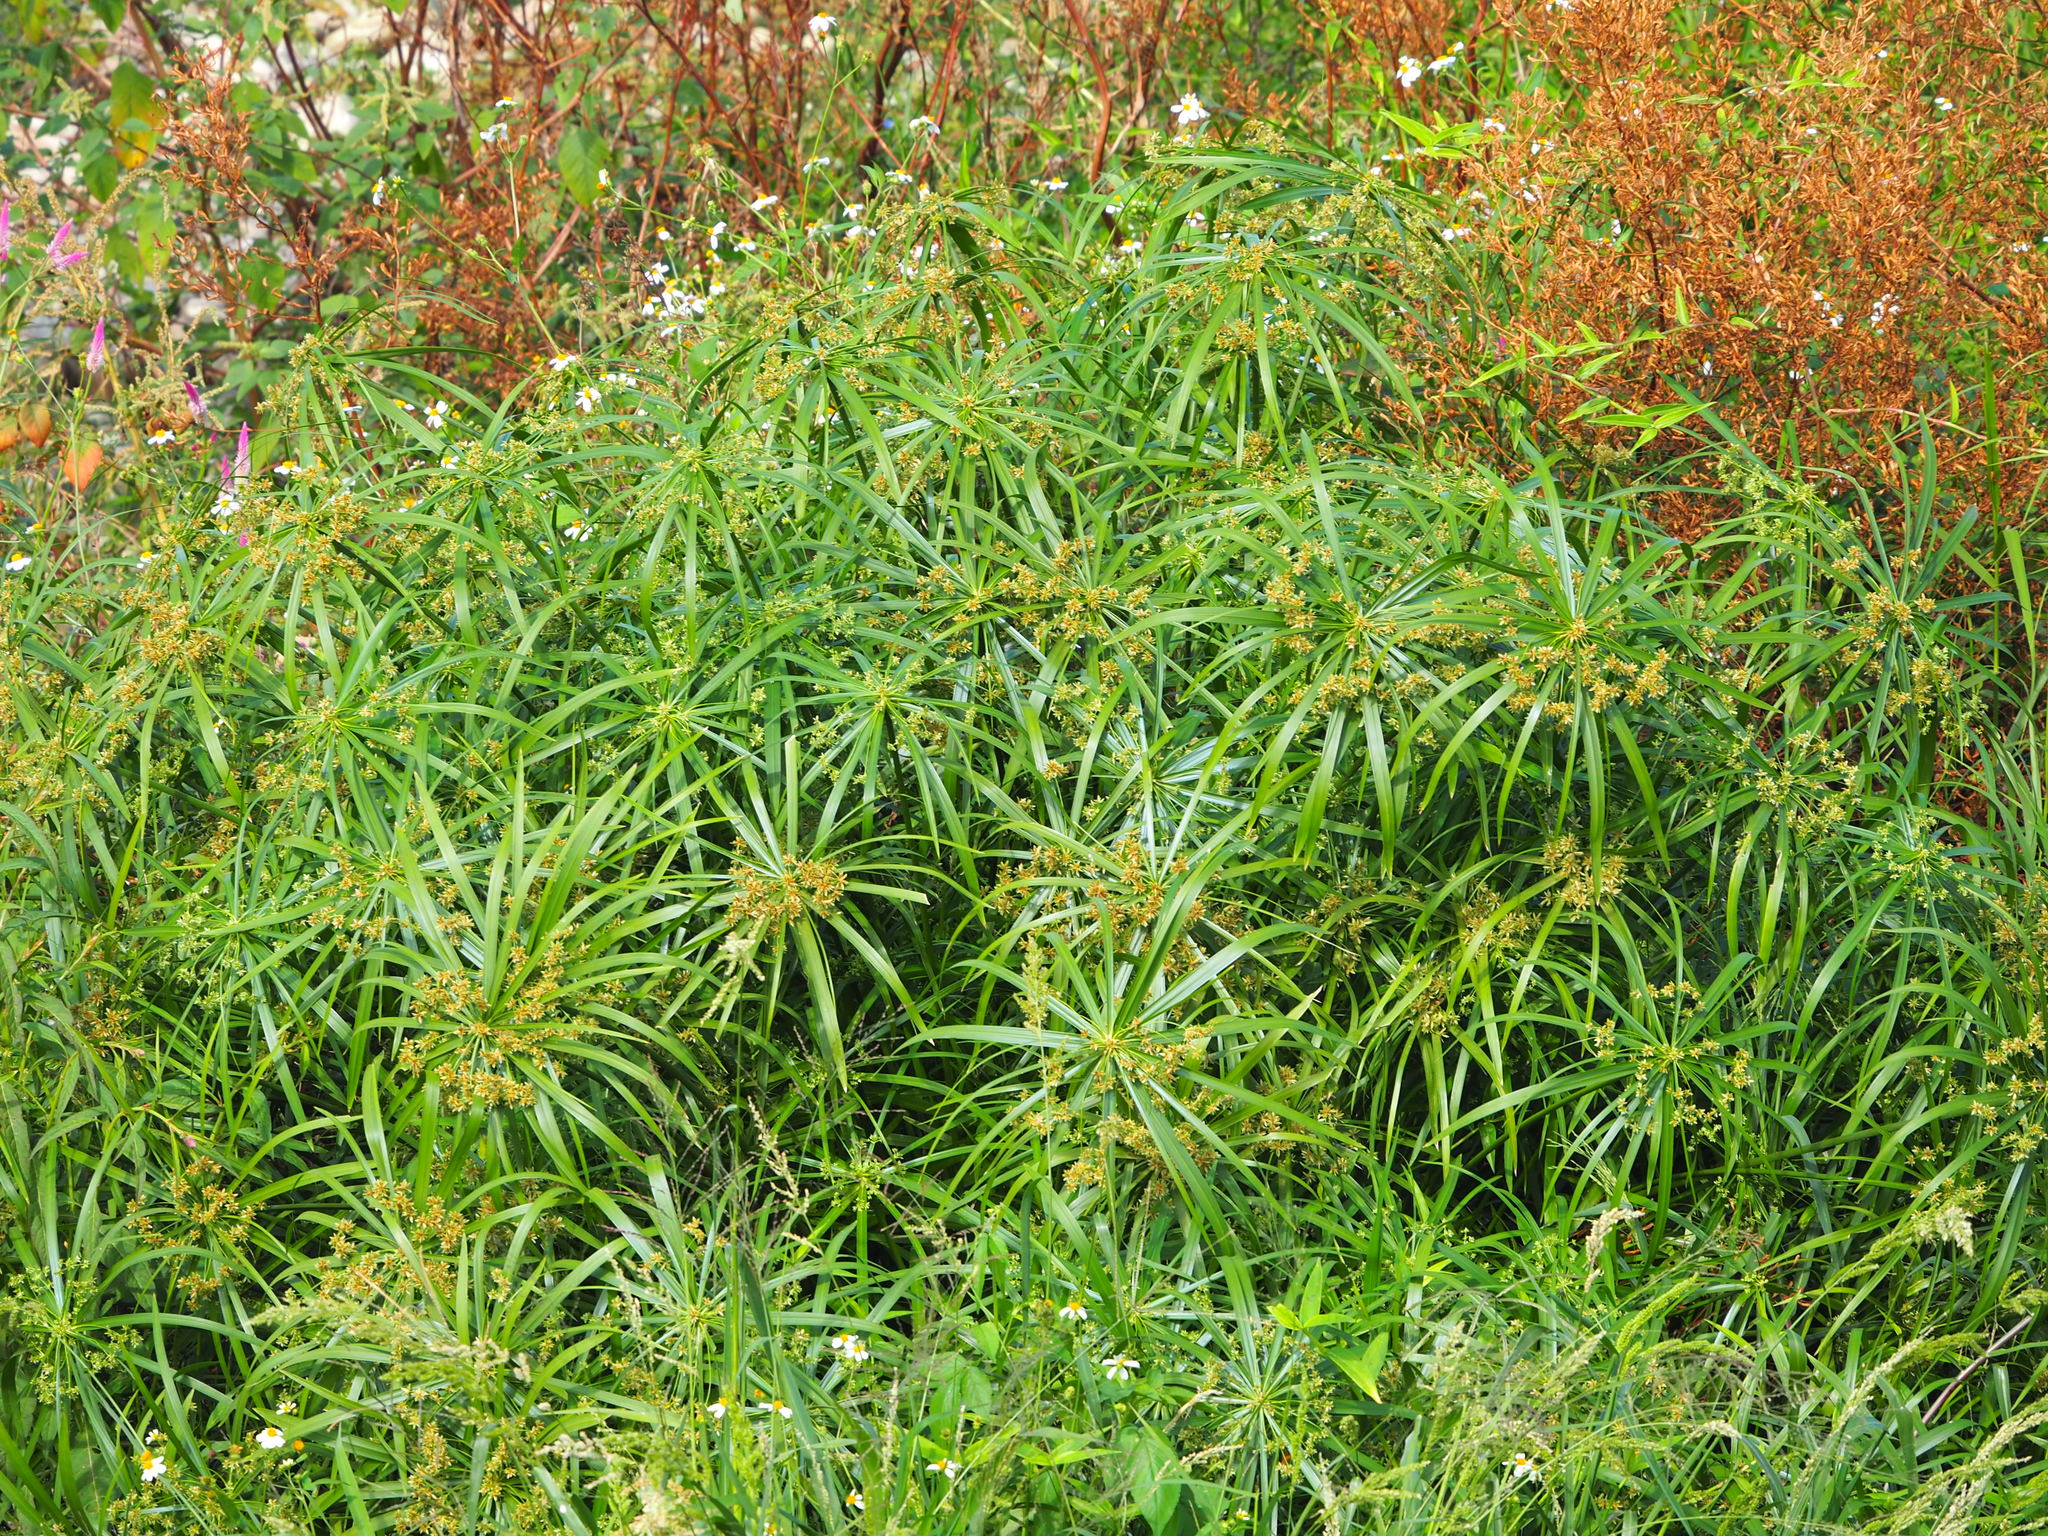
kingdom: Plantae
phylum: Tracheophyta
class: Liliopsida
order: Poales
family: Cyperaceae
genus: Cyperus
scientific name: Cyperus alternifolius
